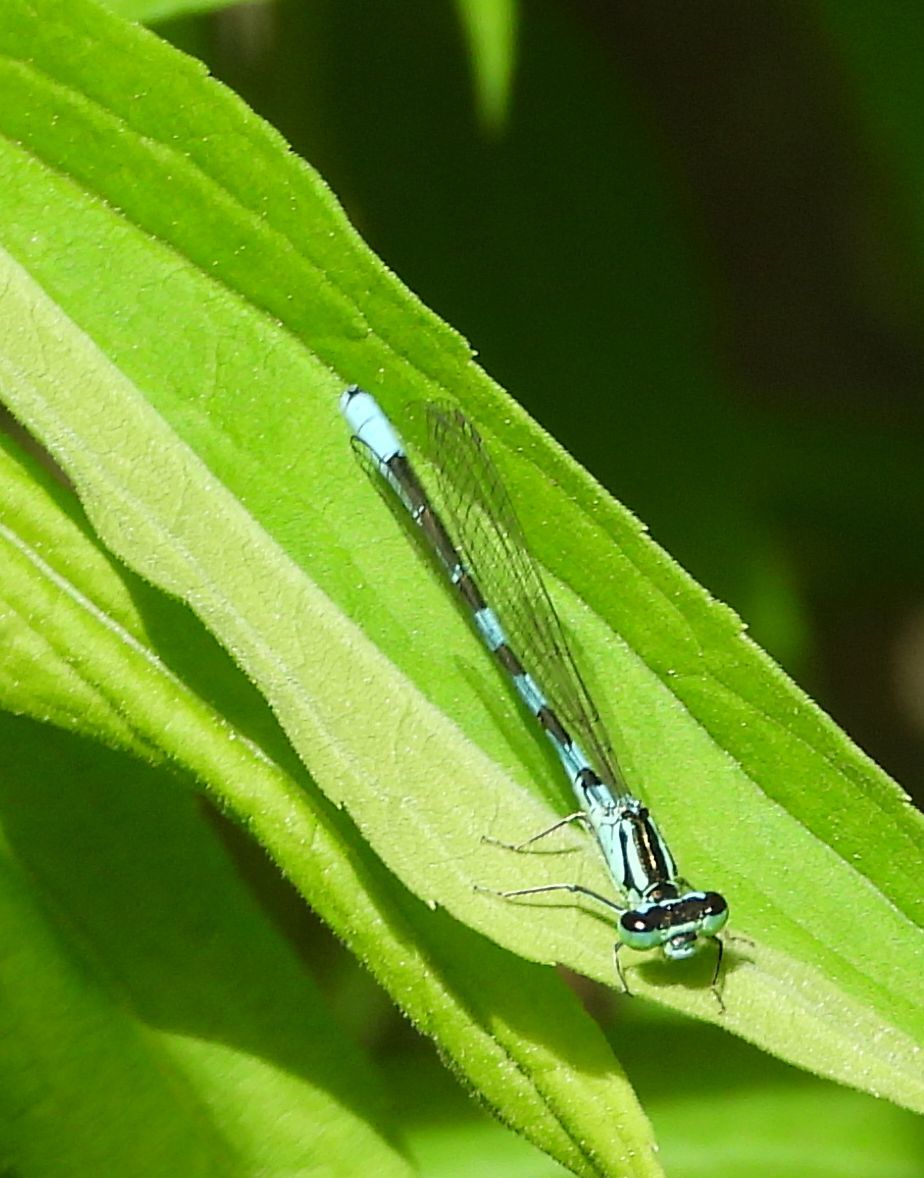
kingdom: Animalia
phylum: Arthropoda
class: Insecta
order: Odonata
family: Coenagrionidae
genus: Coenagrion
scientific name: Coenagrion resolutum
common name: Taiga bluet
